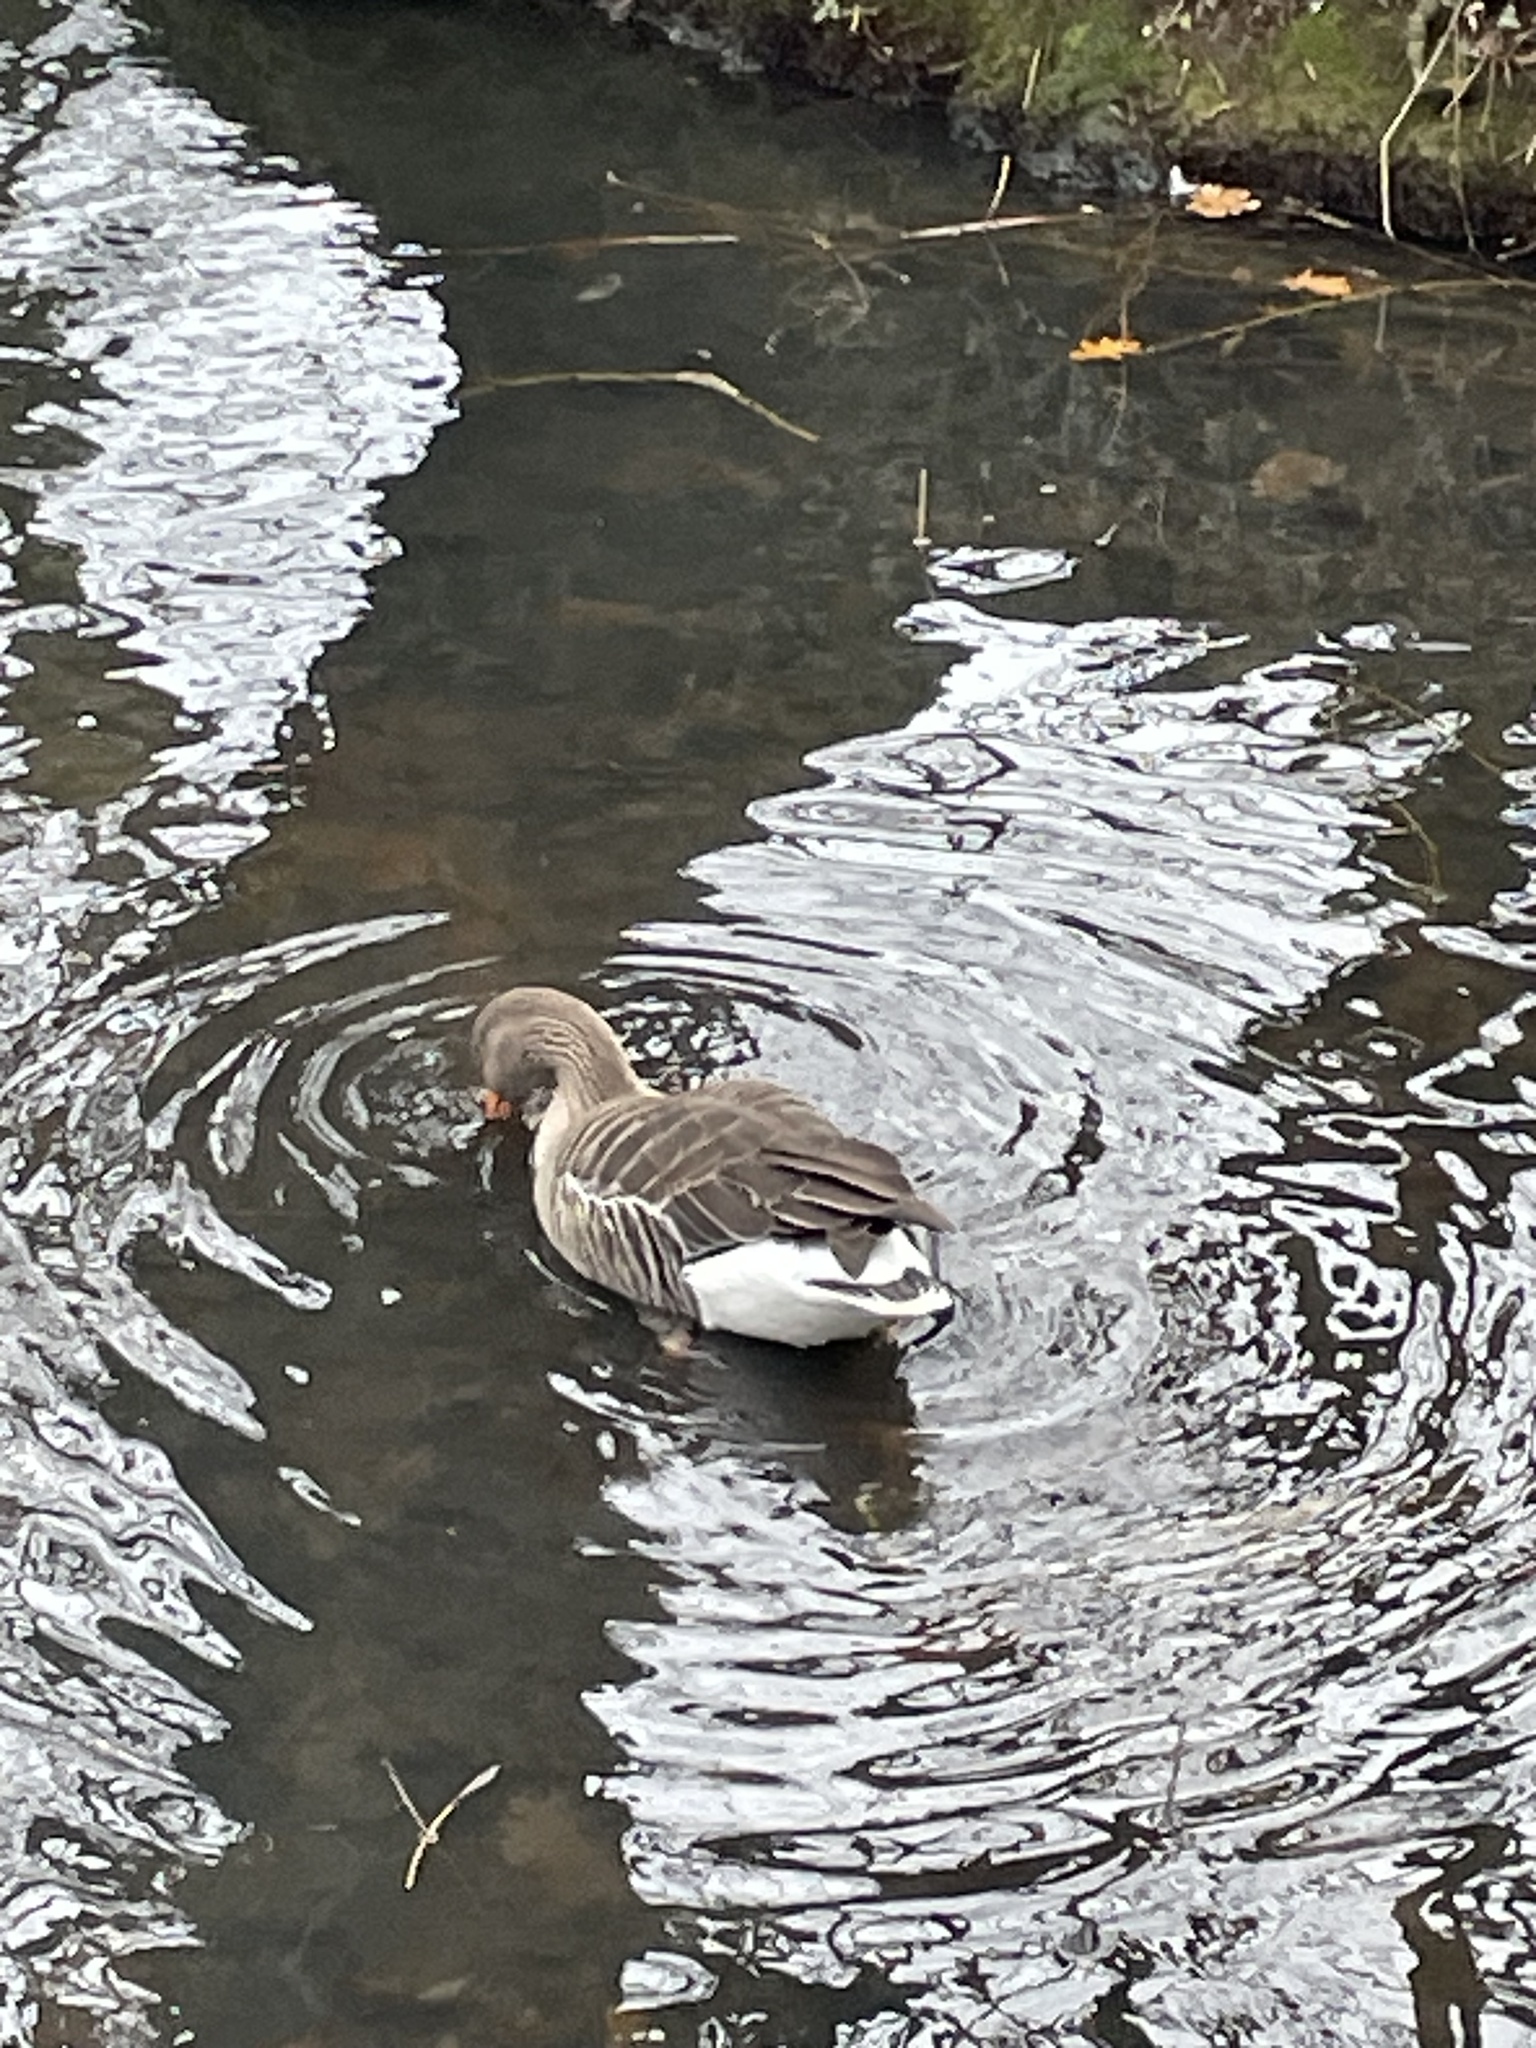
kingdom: Animalia
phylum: Chordata
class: Aves
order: Anseriformes
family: Anatidae
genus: Anser
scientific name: Anser anser
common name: Greylag goose
